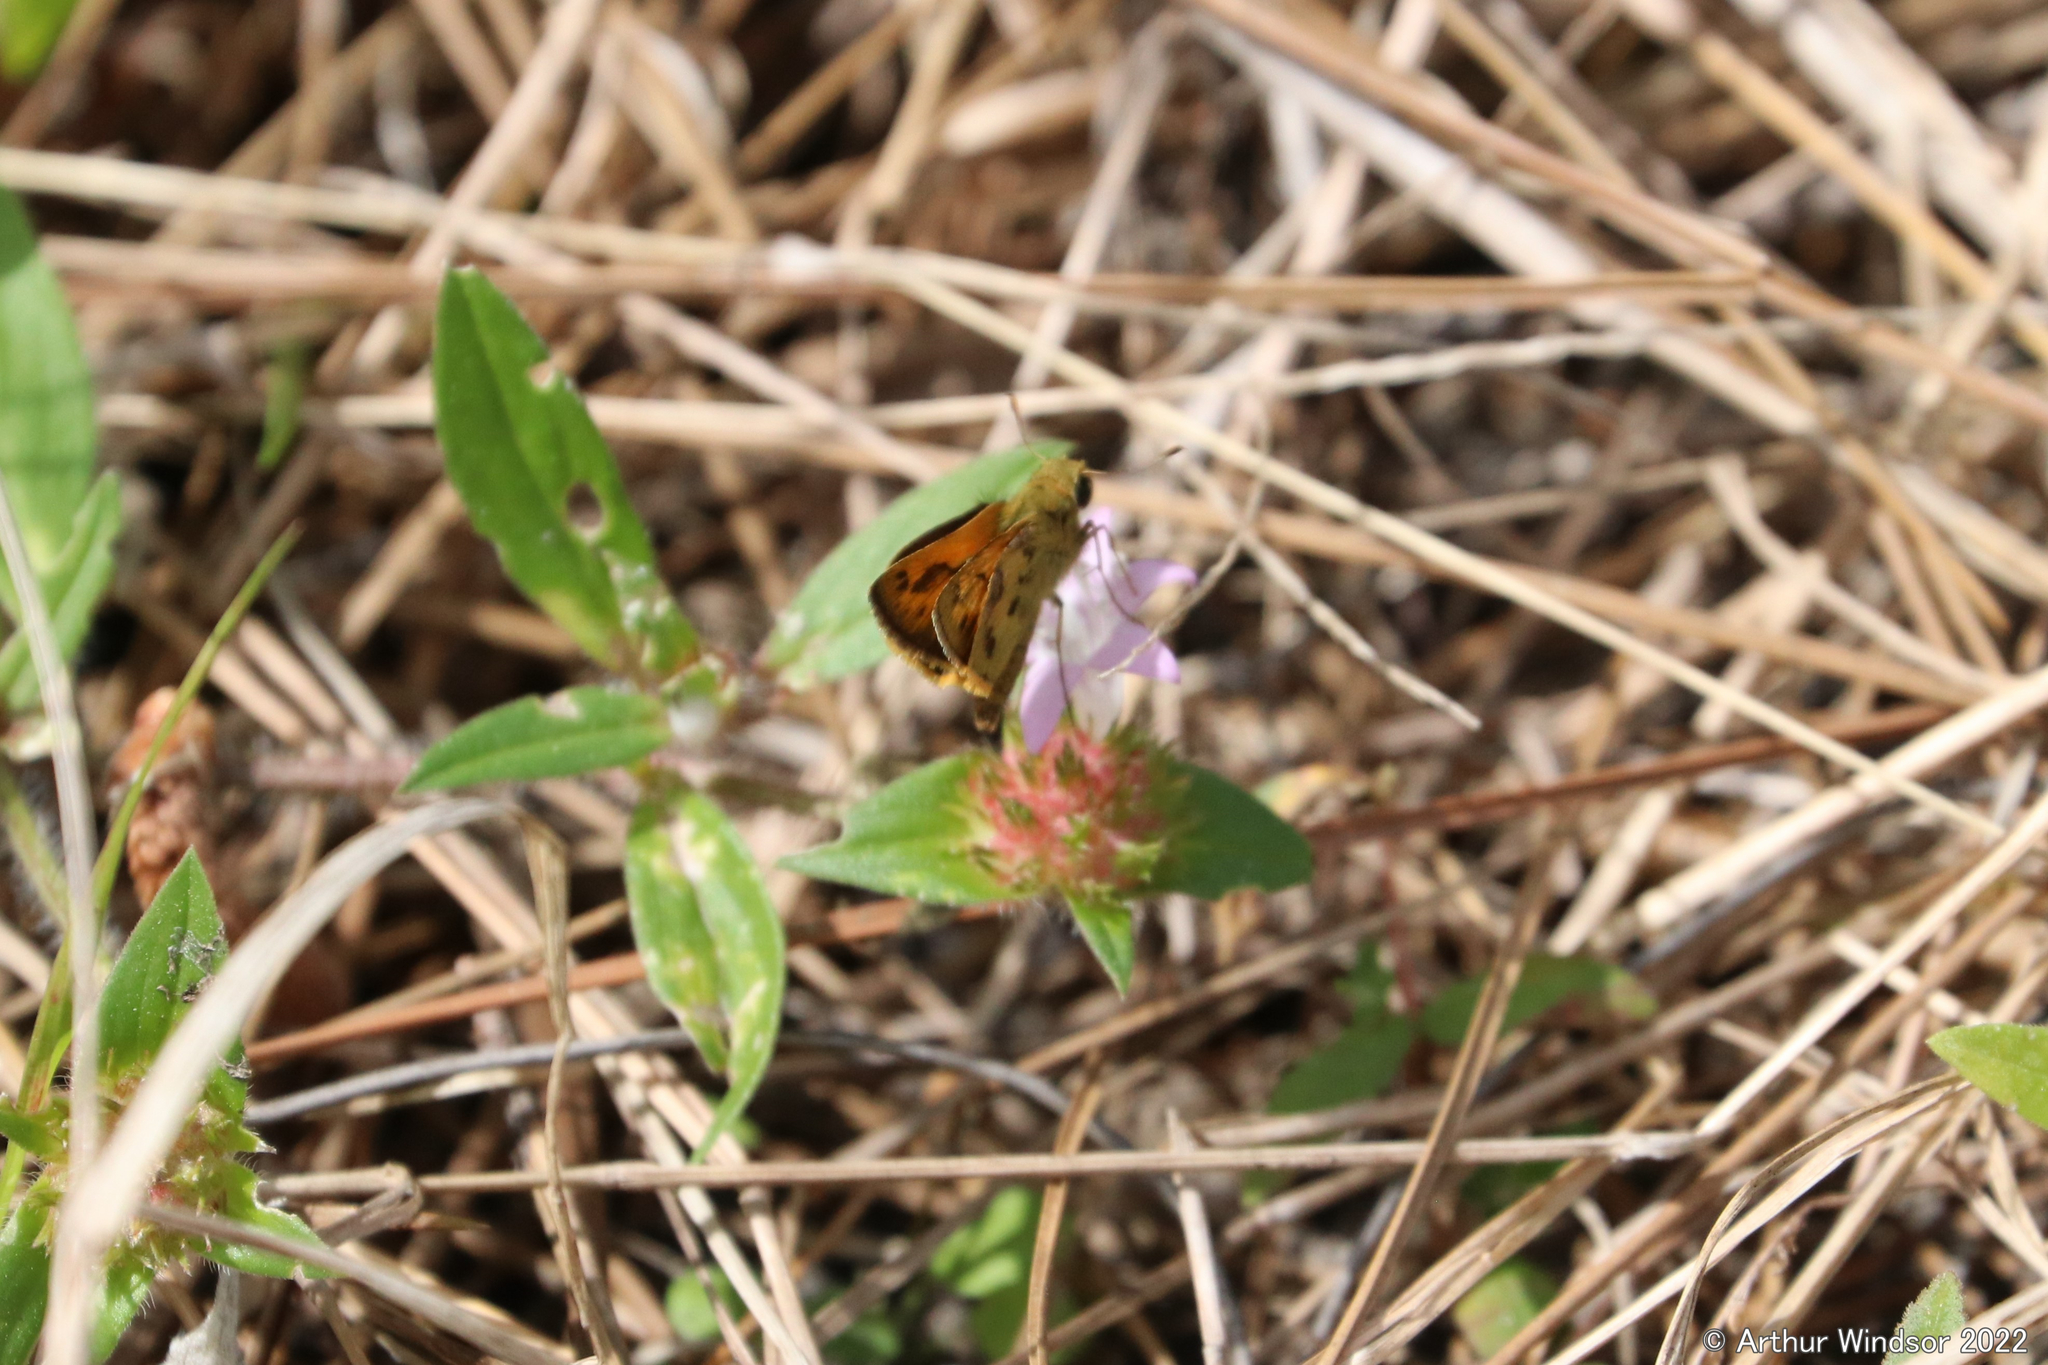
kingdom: Animalia
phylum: Arthropoda
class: Insecta
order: Lepidoptera
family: Hesperiidae
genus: Polites
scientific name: Polites vibex
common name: Whirlabout
